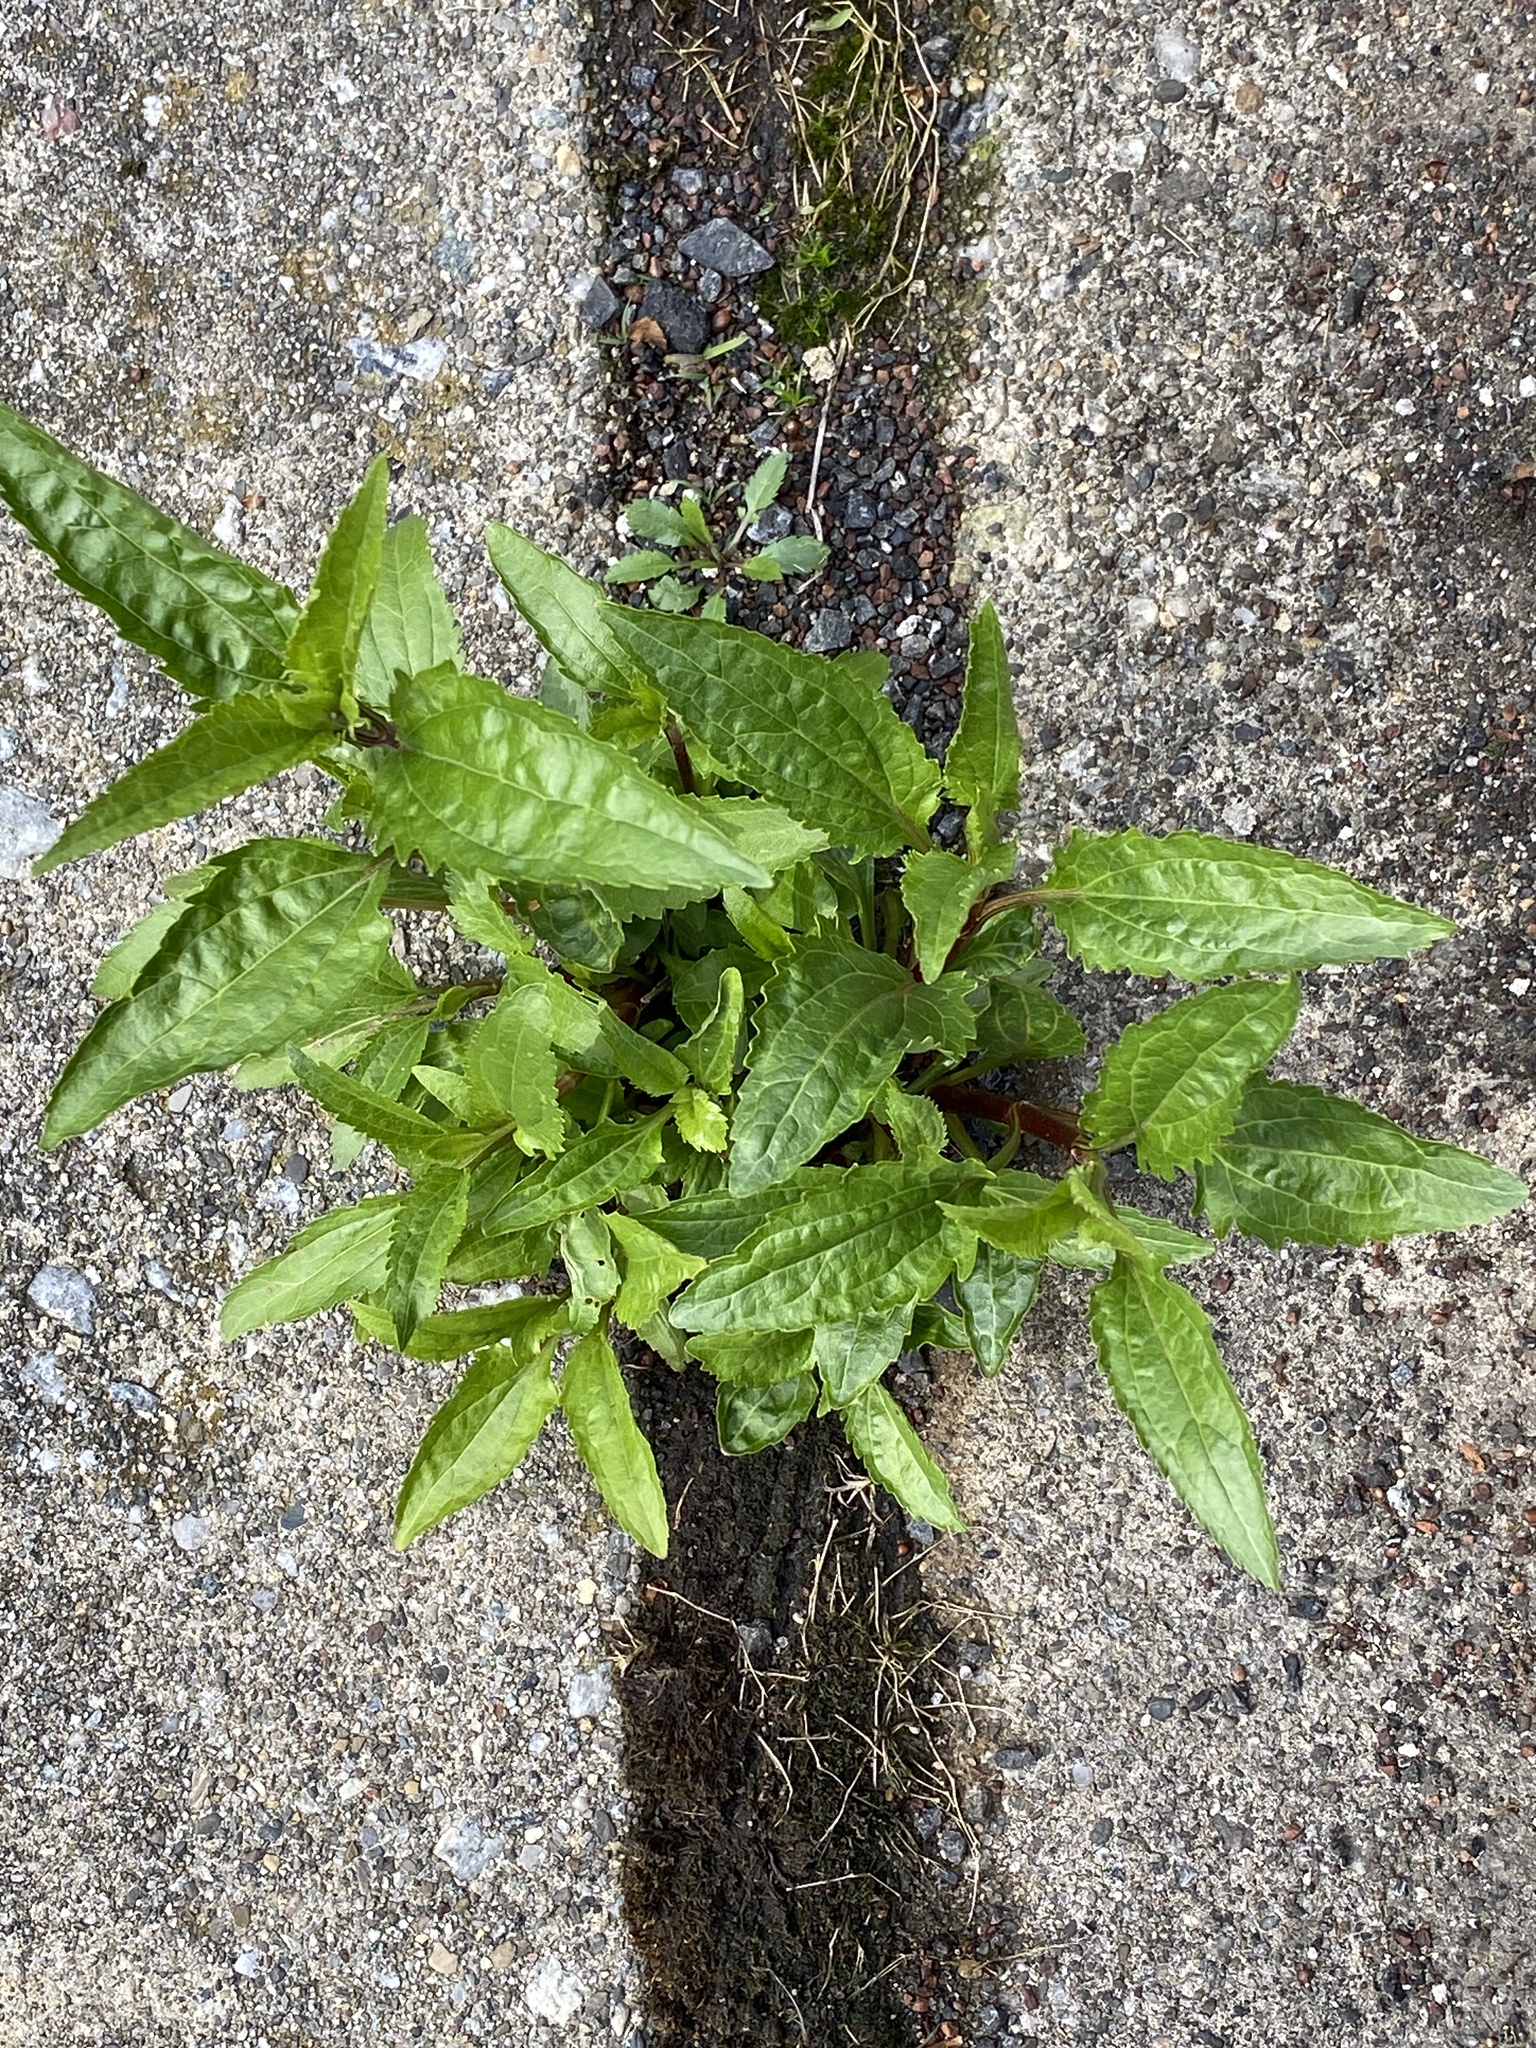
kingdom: Plantae
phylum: Tracheophyta
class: Magnoliopsida
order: Asterales
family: Asteraceae
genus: Eupatorium
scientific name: Eupatorium serotinum
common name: Late boneset
